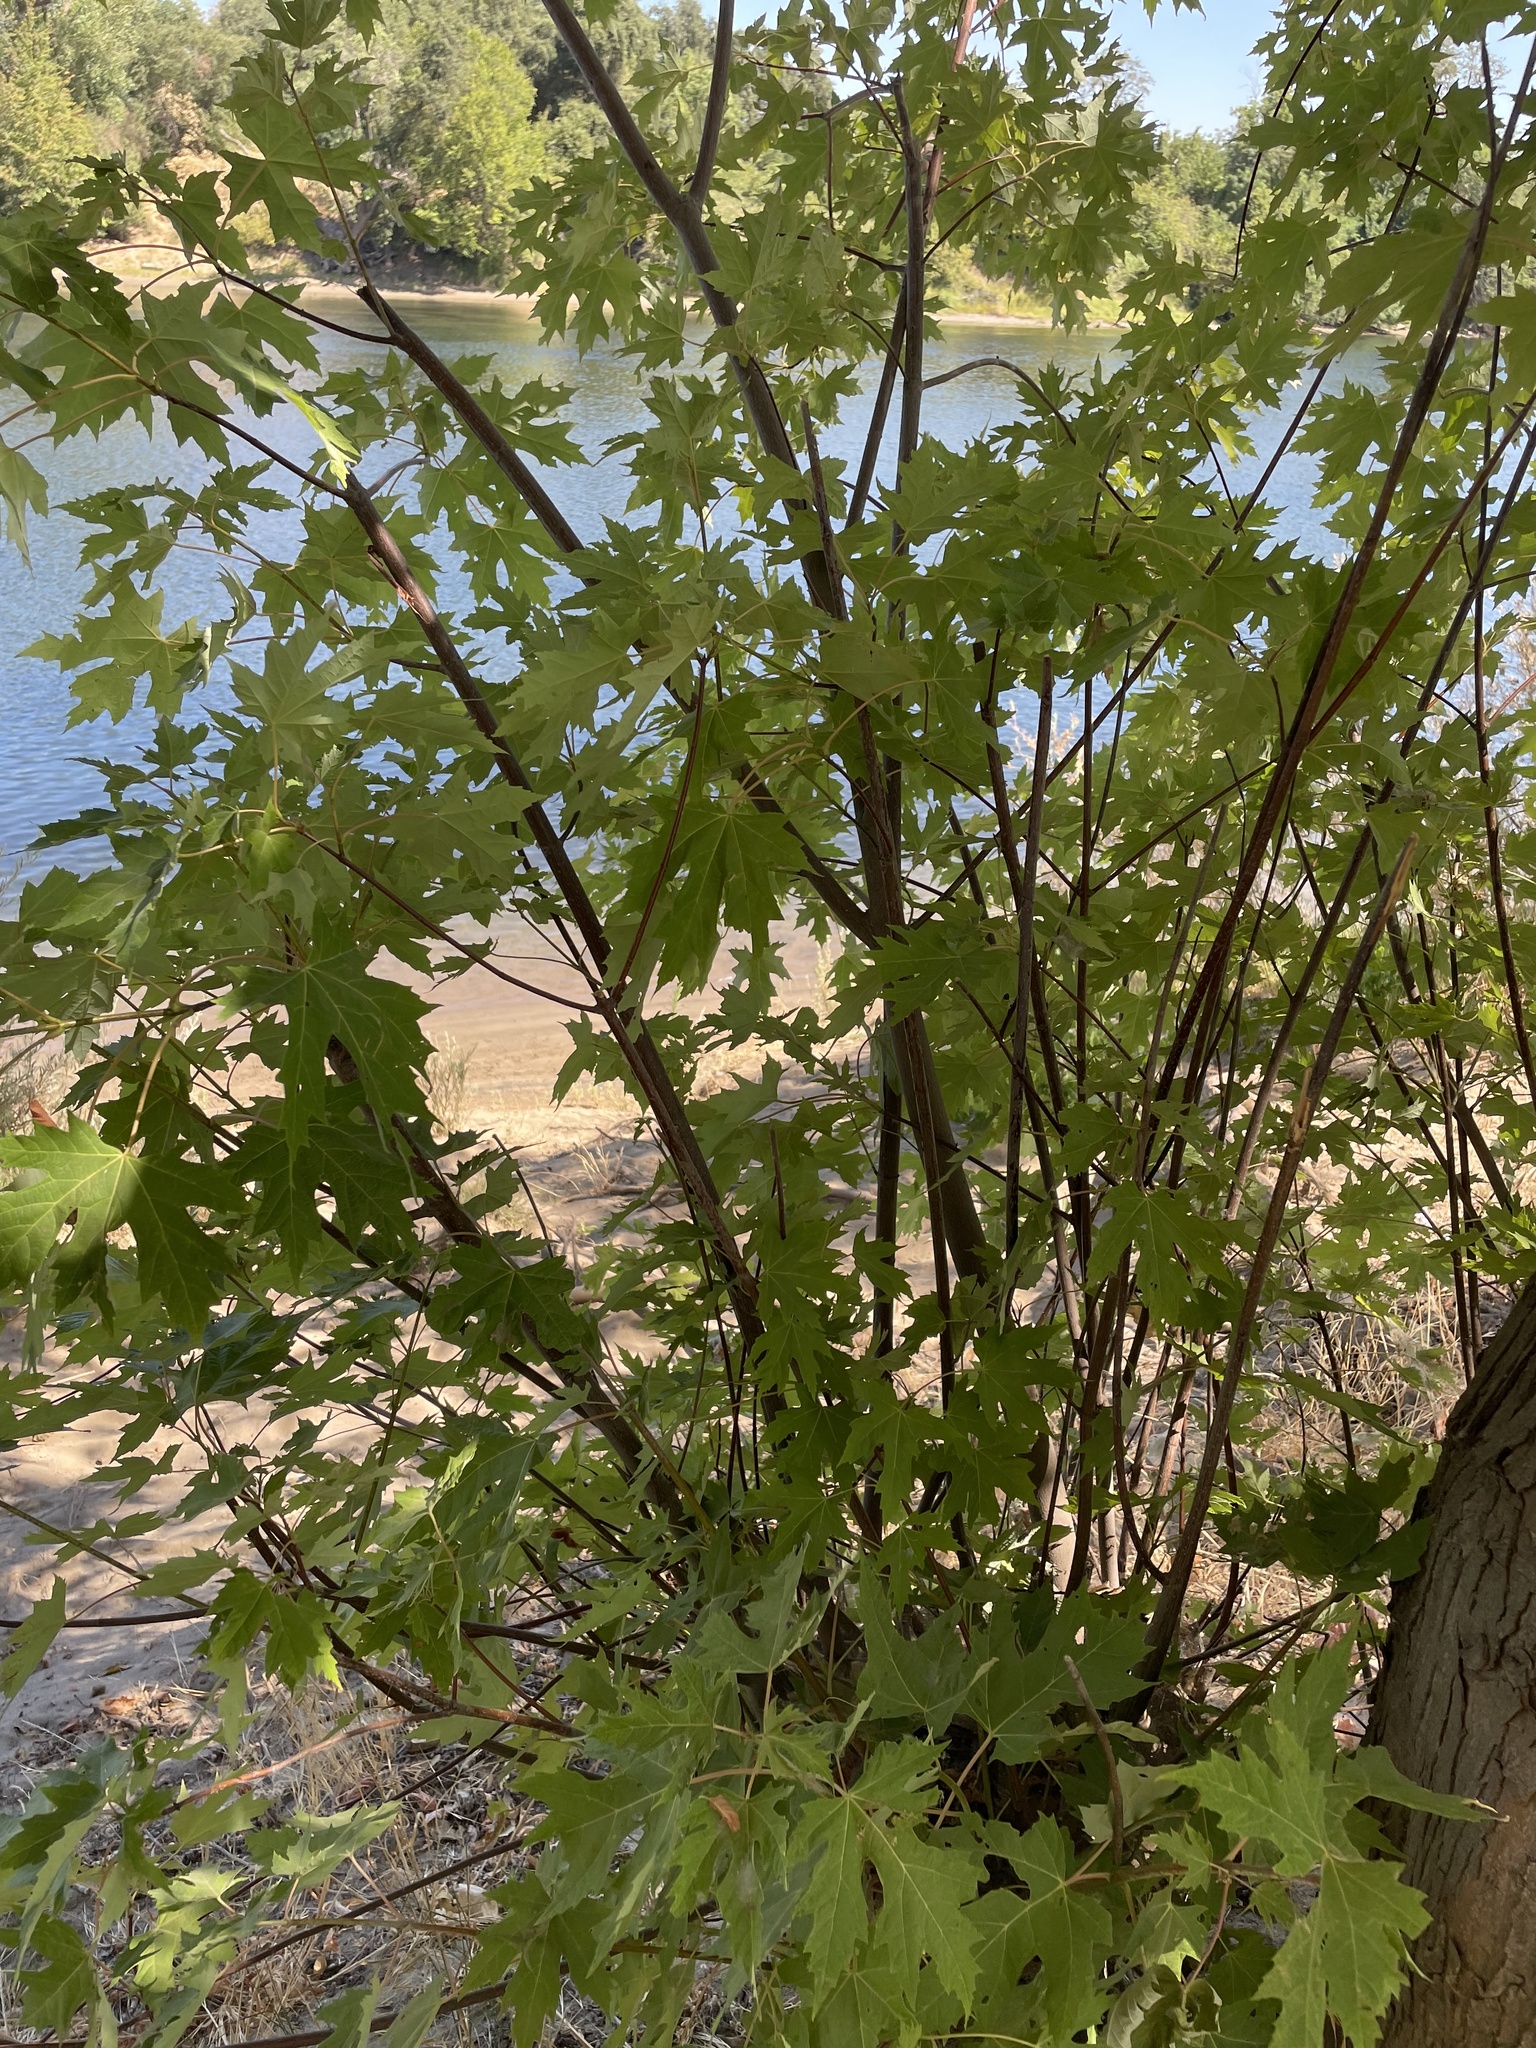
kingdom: Plantae
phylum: Tracheophyta
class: Magnoliopsida
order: Sapindales
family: Sapindaceae
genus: Acer
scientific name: Acer saccharinum
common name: Silver maple
